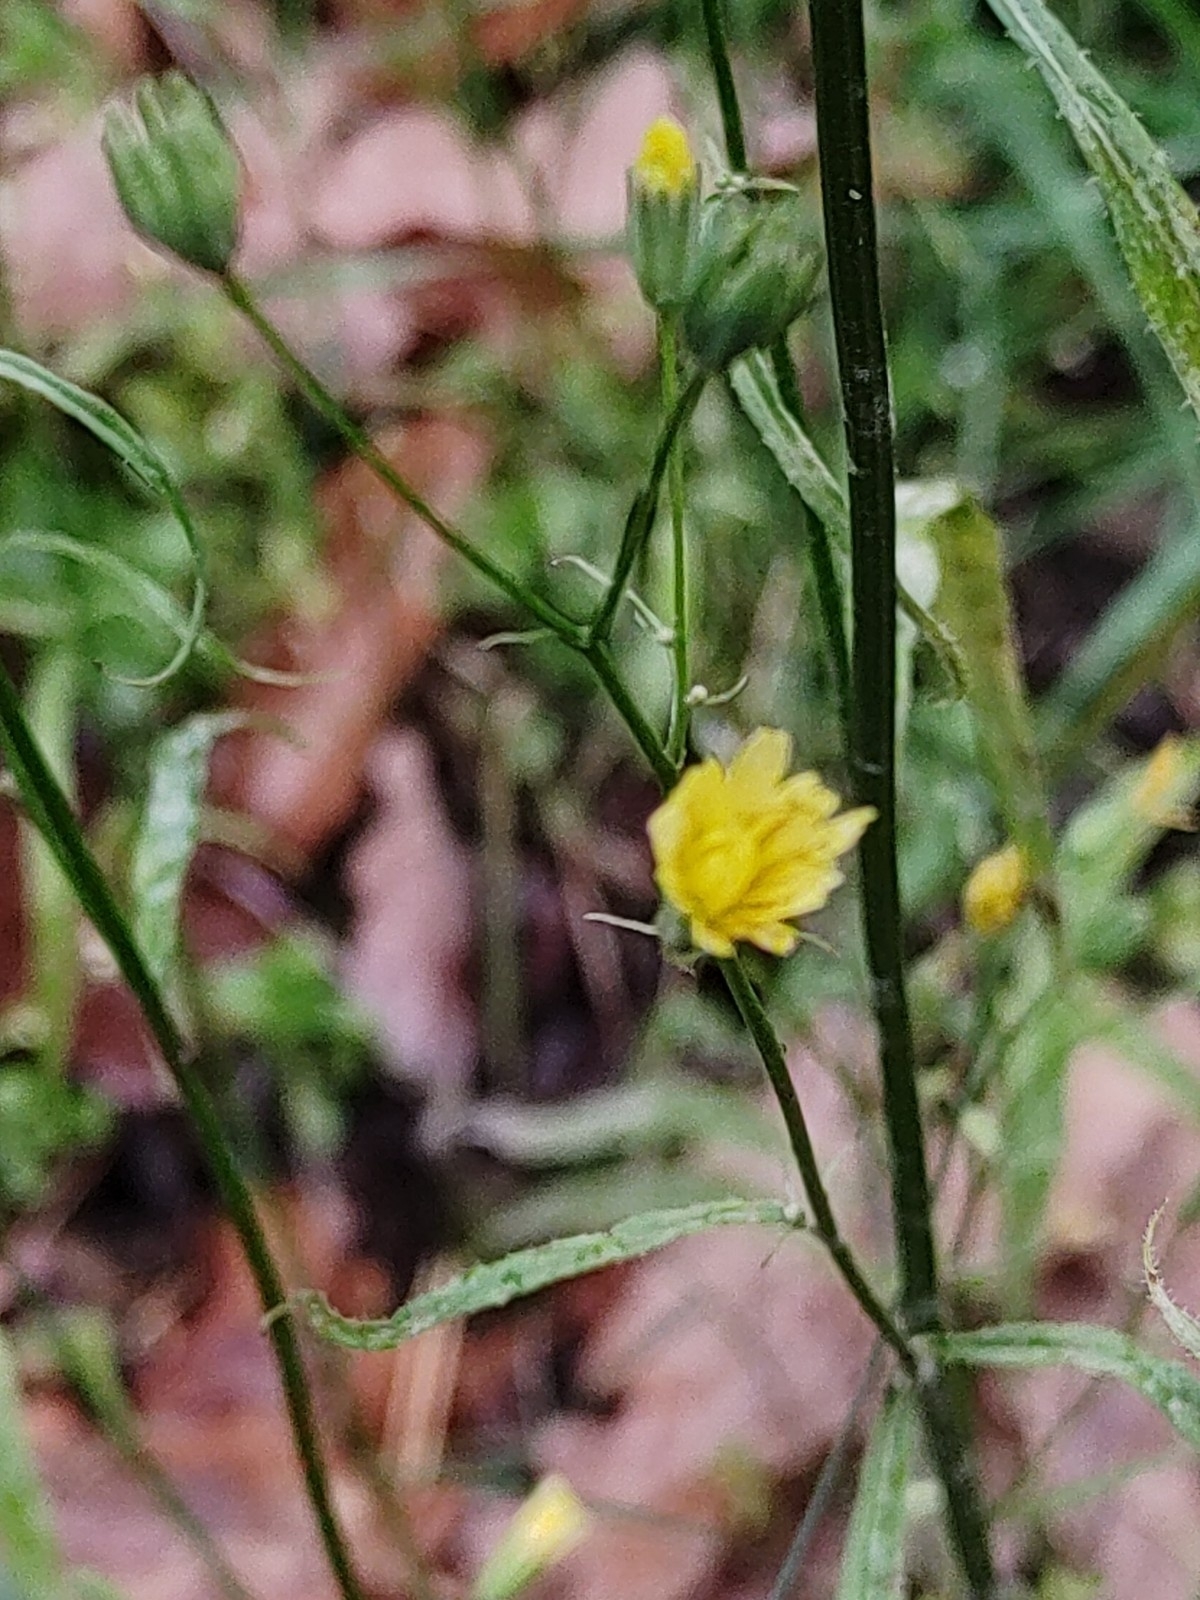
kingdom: Plantae
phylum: Tracheophyta
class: Magnoliopsida
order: Asterales
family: Asteraceae
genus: Lapsana
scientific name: Lapsana communis
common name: Nipplewort
